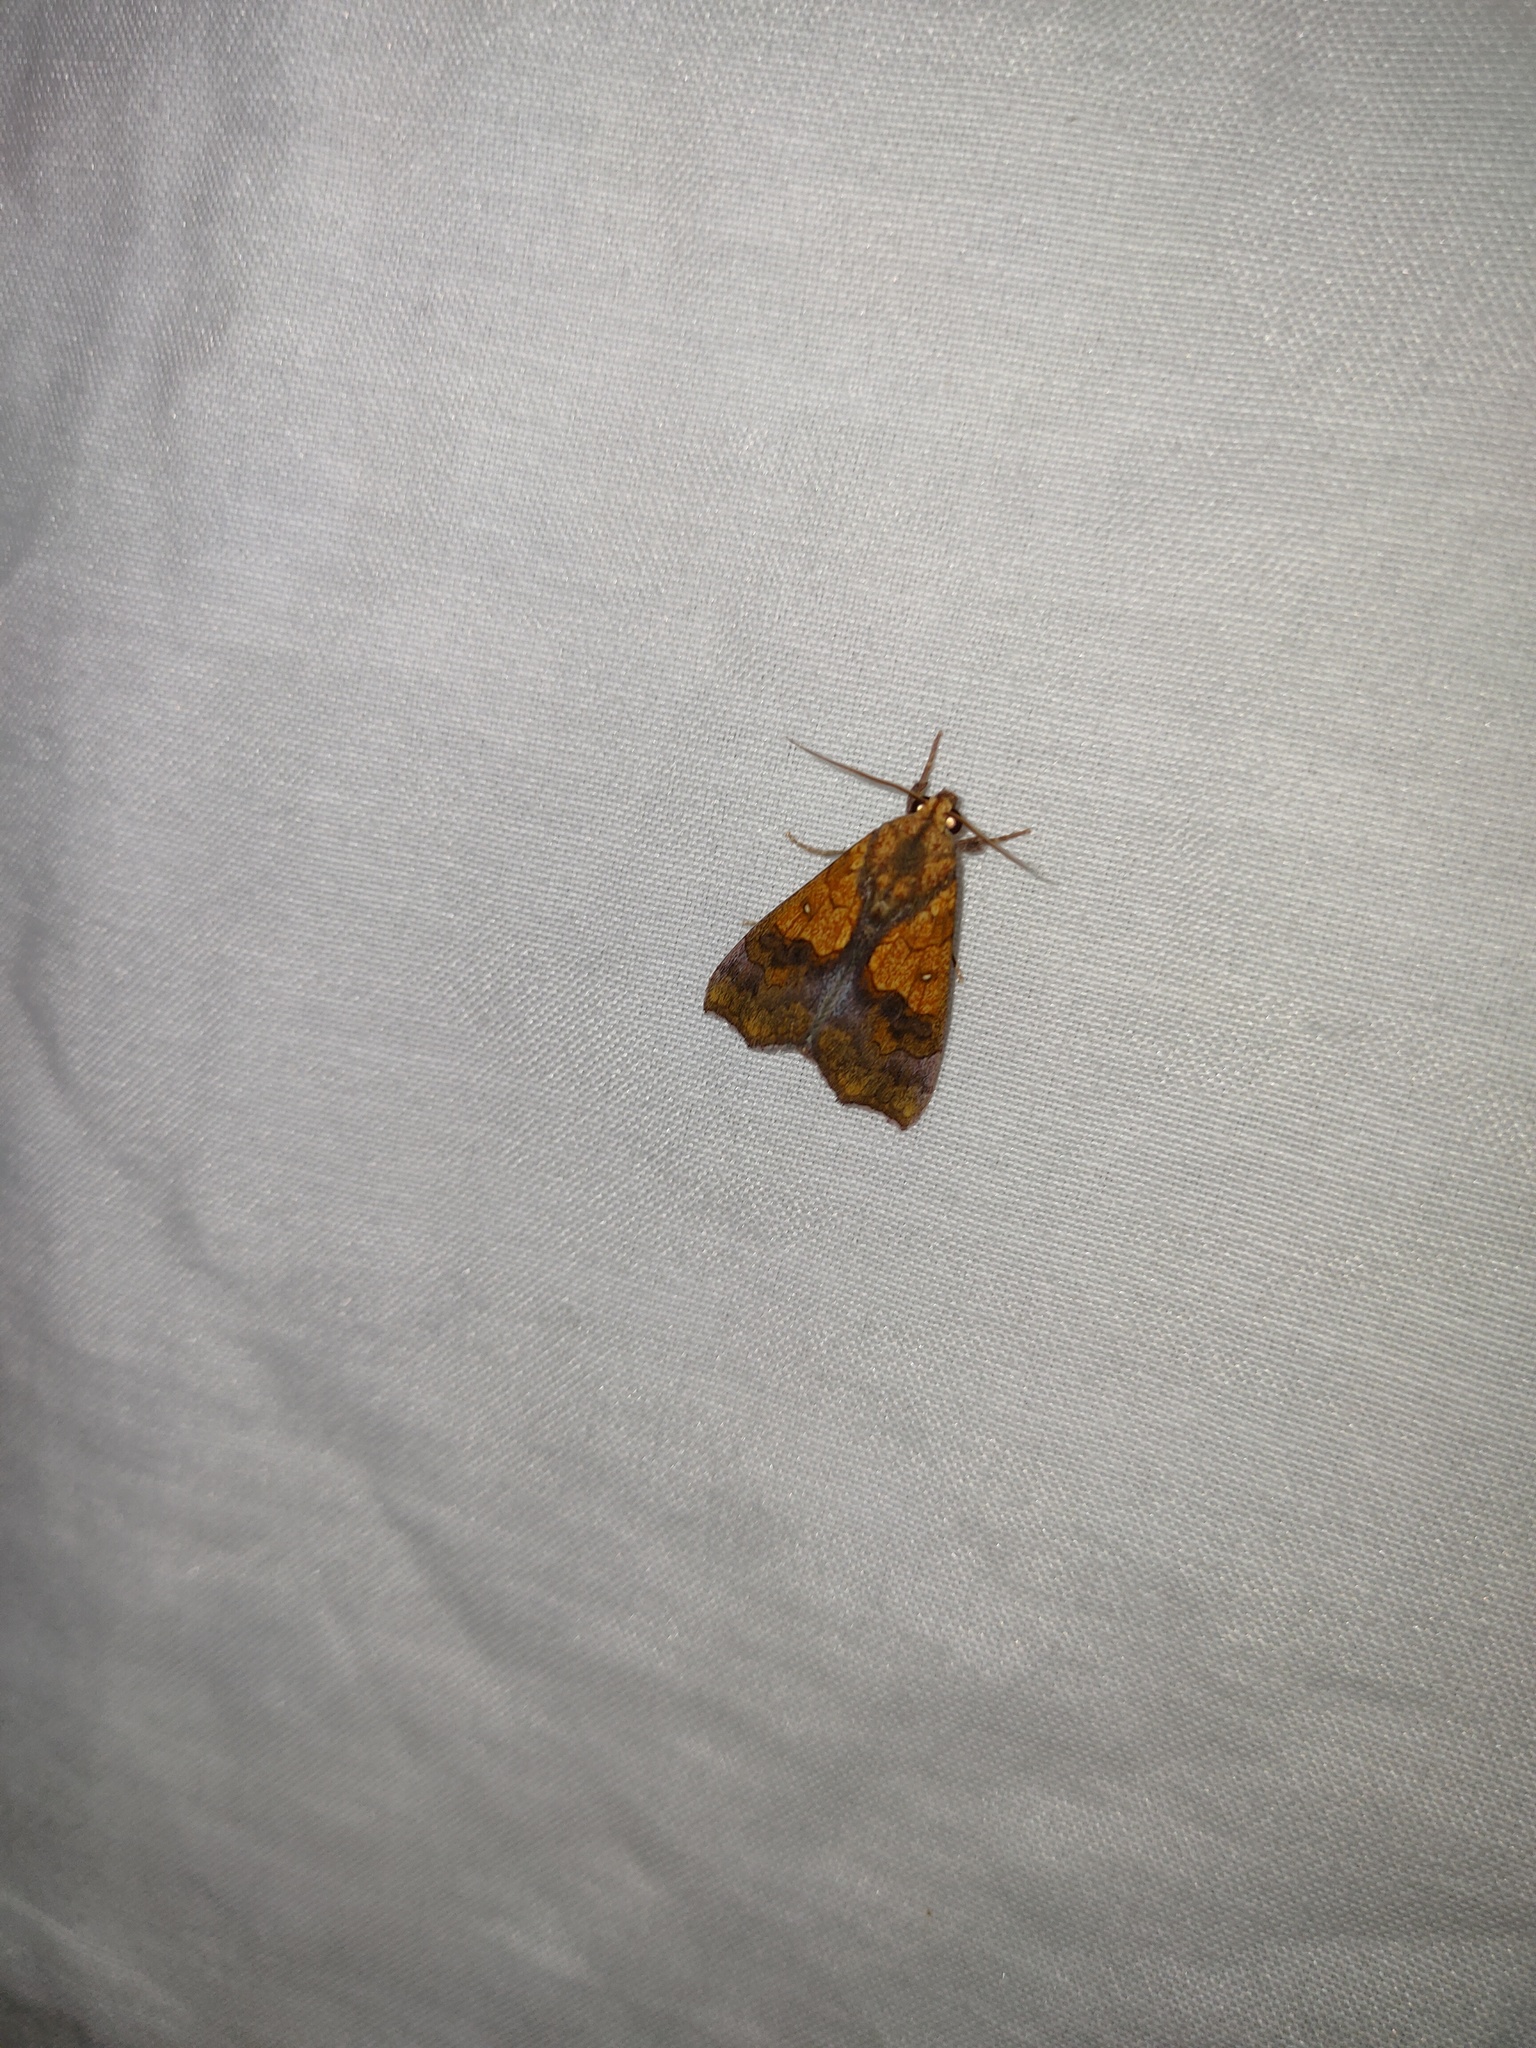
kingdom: Animalia
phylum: Arthropoda
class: Insecta
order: Lepidoptera
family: Erebidae
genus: Anomis
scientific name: Anomis flava
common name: Moth
